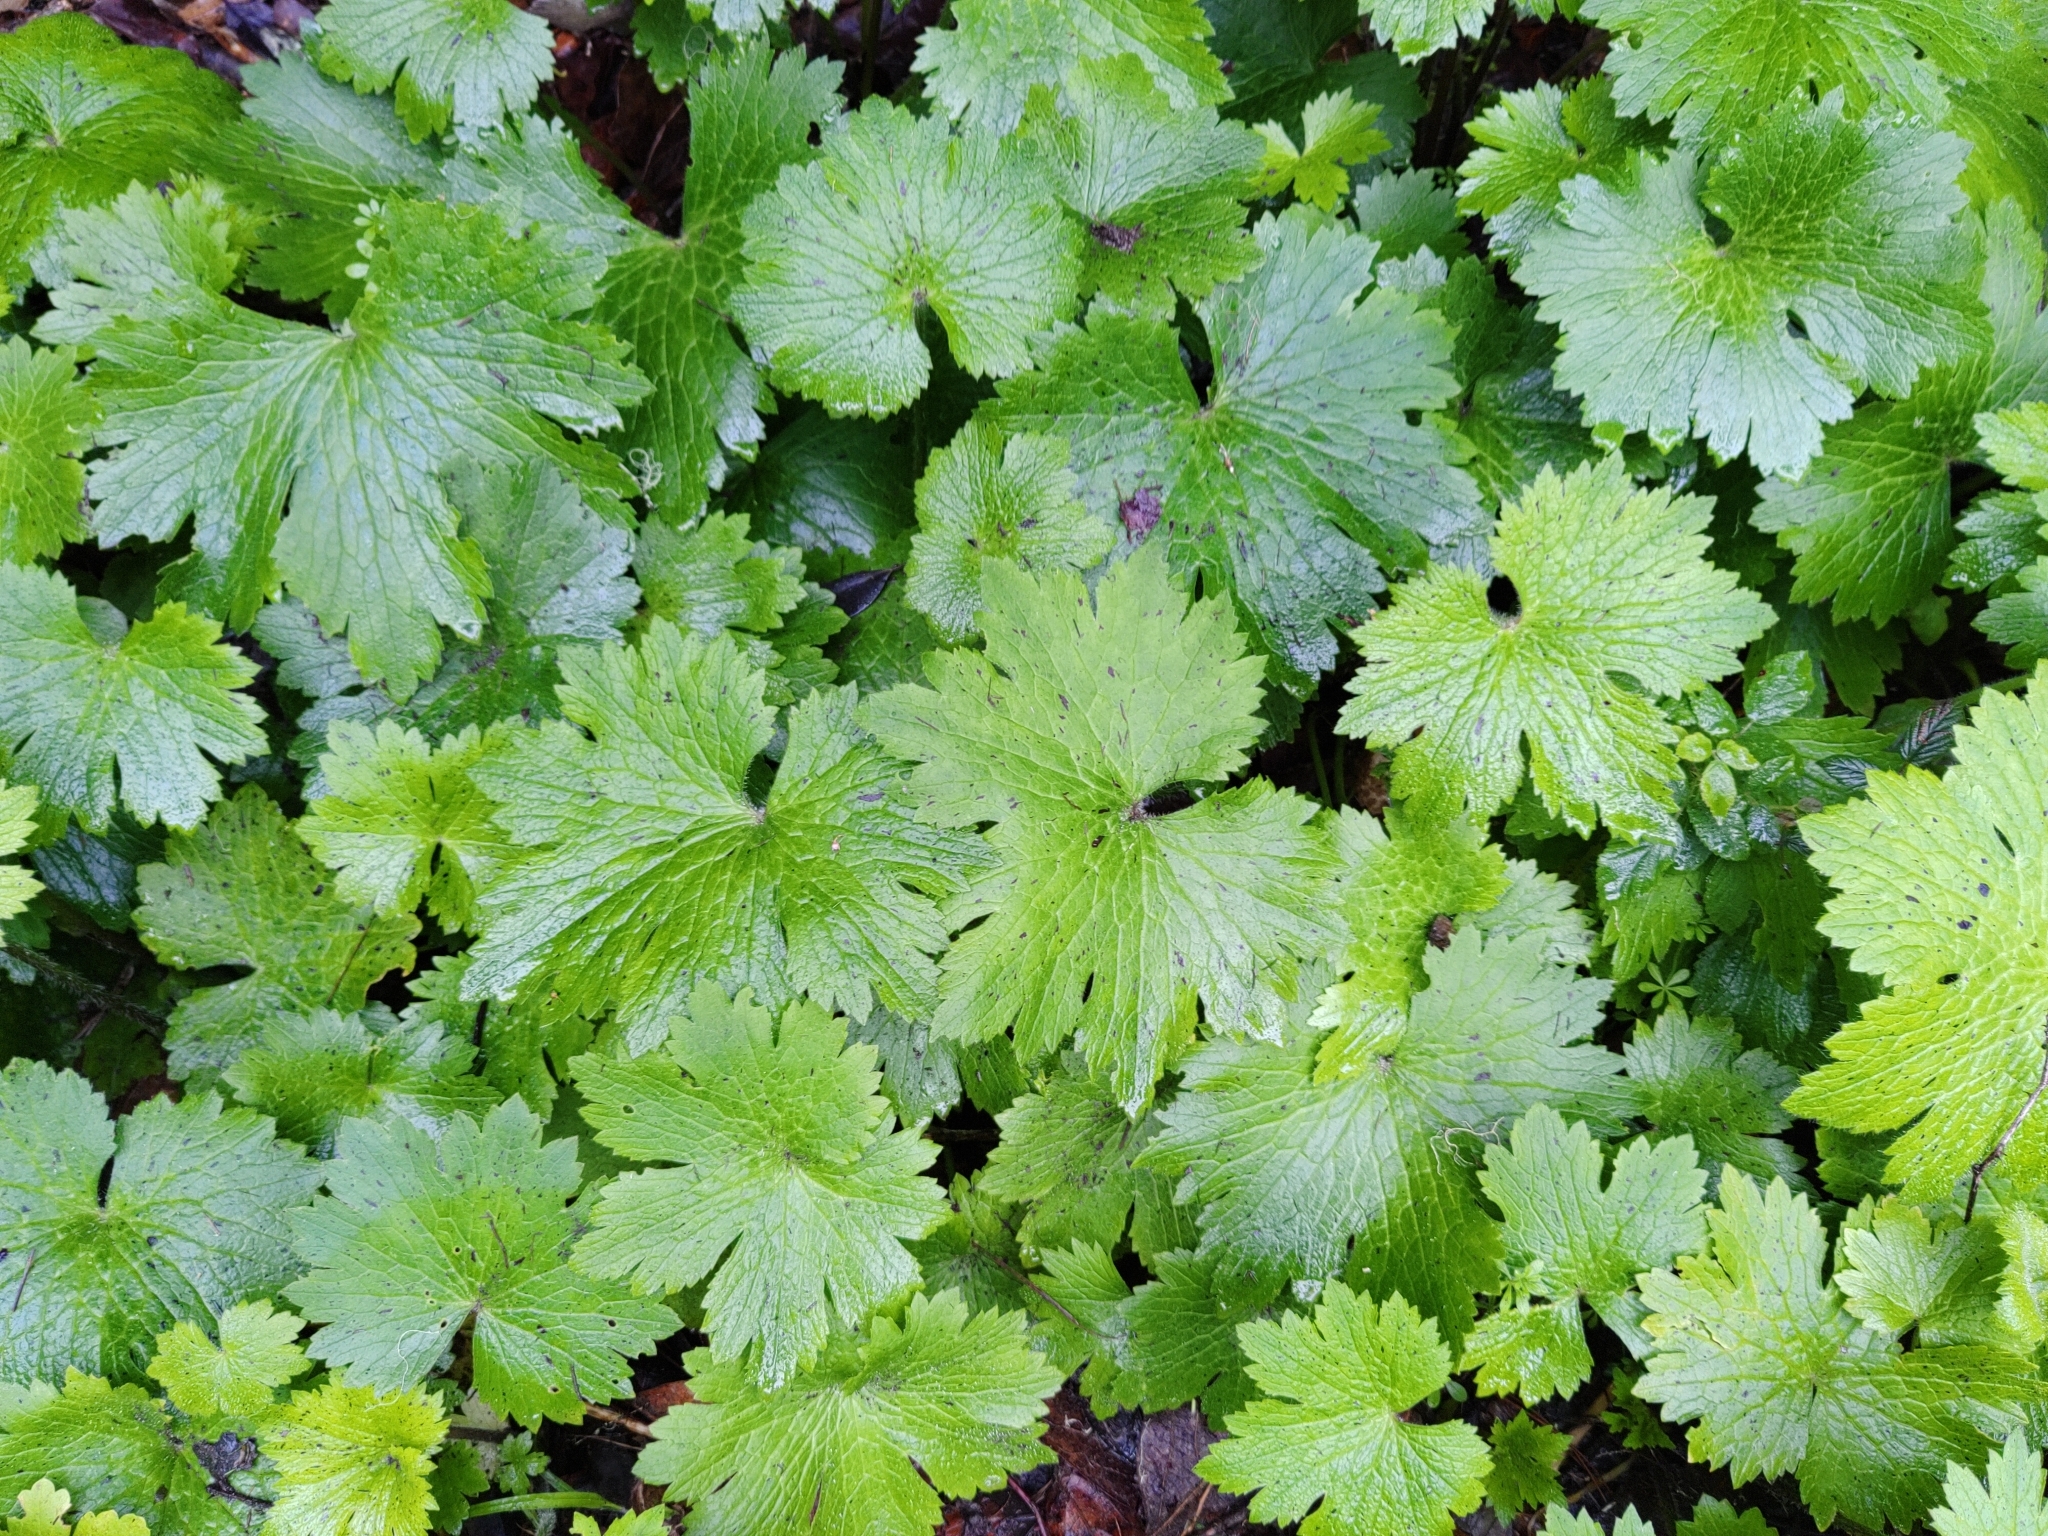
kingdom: Plantae
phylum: Tracheophyta
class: Magnoliopsida
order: Ranunculales
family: Ranunculaceae
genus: Ranunculus
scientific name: Ranunculus cortusifolius
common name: Azores buttercup
